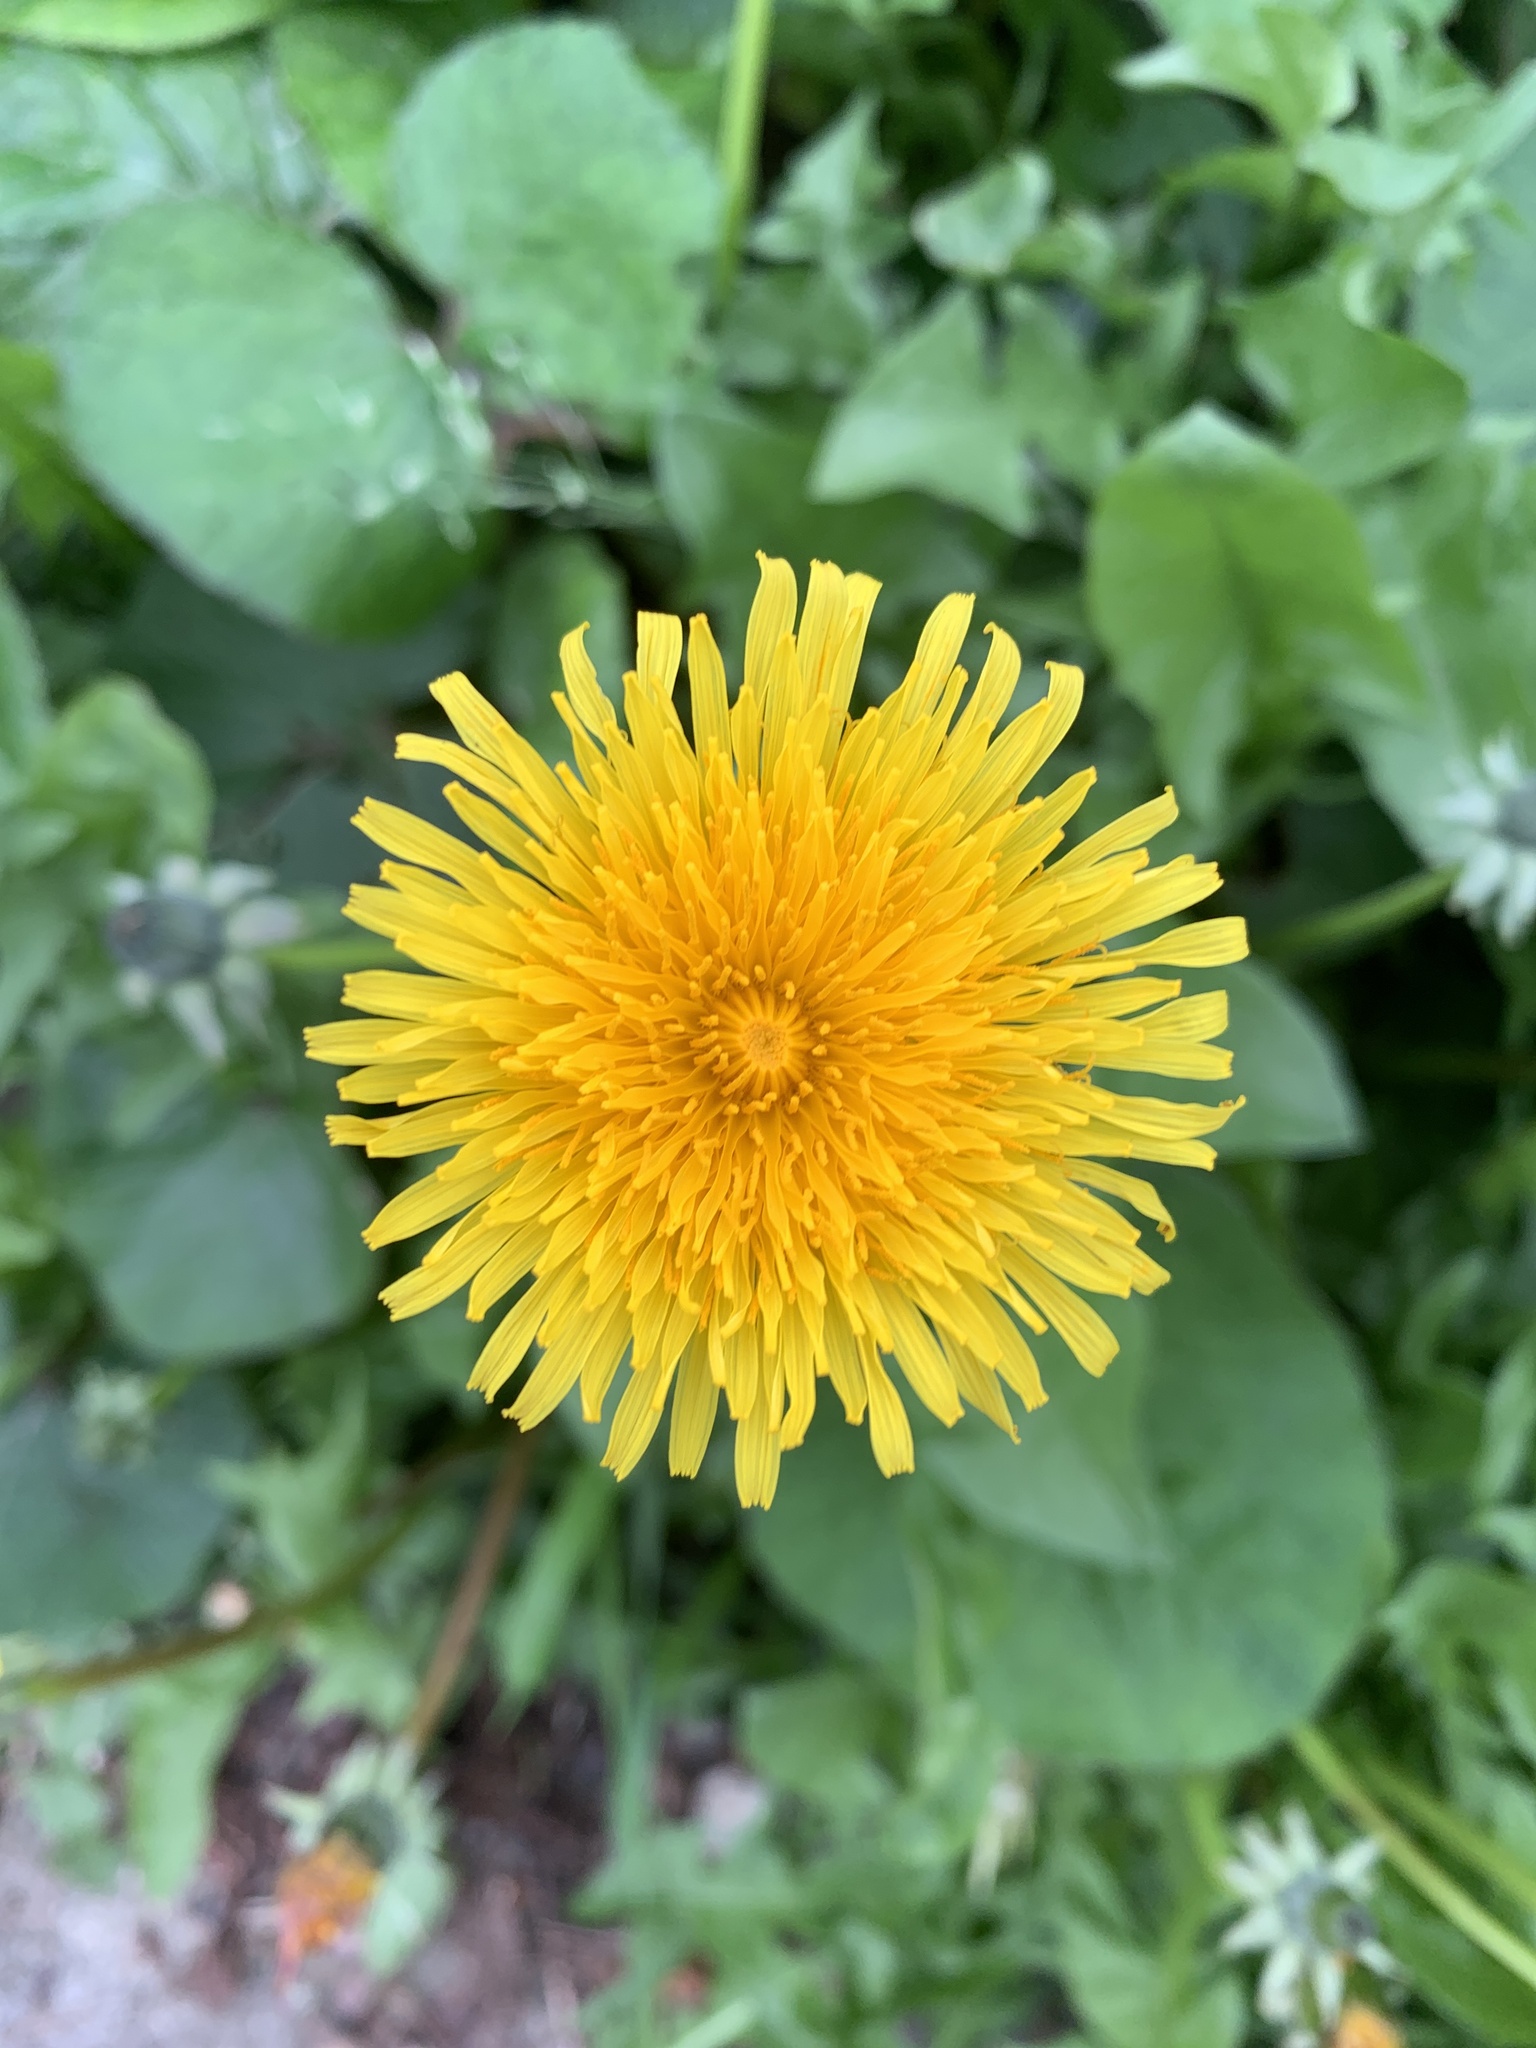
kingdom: Plantae
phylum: Tracheophyta
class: Magnoliopsida
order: Asterales
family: Asteraceae
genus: Taraxacum
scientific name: Taraxacum officinale
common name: Common dandelion
